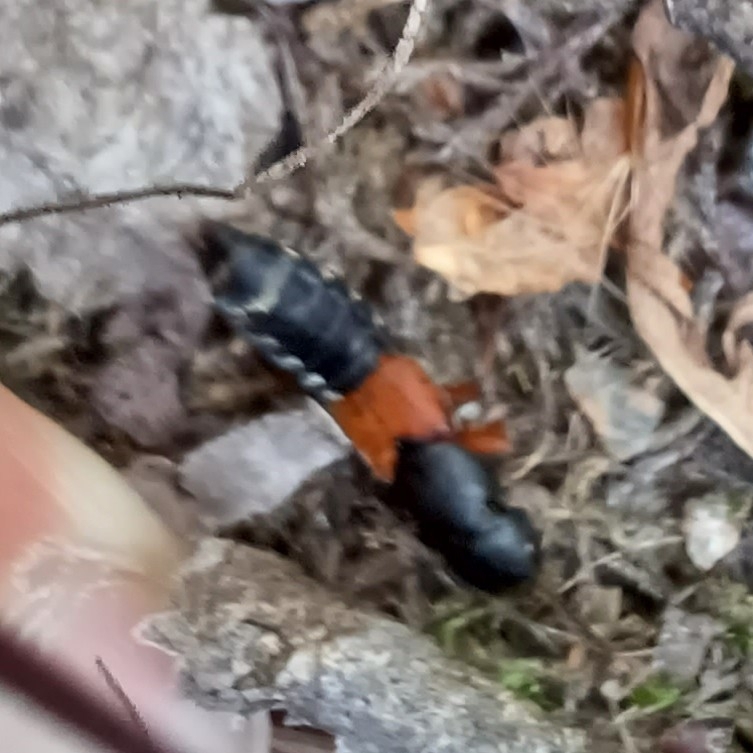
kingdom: Animalia
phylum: Arthropoda
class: Insecta
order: Coleoptera
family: Staphylinidae
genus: Platydracus
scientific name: Platydracus stercorarius
